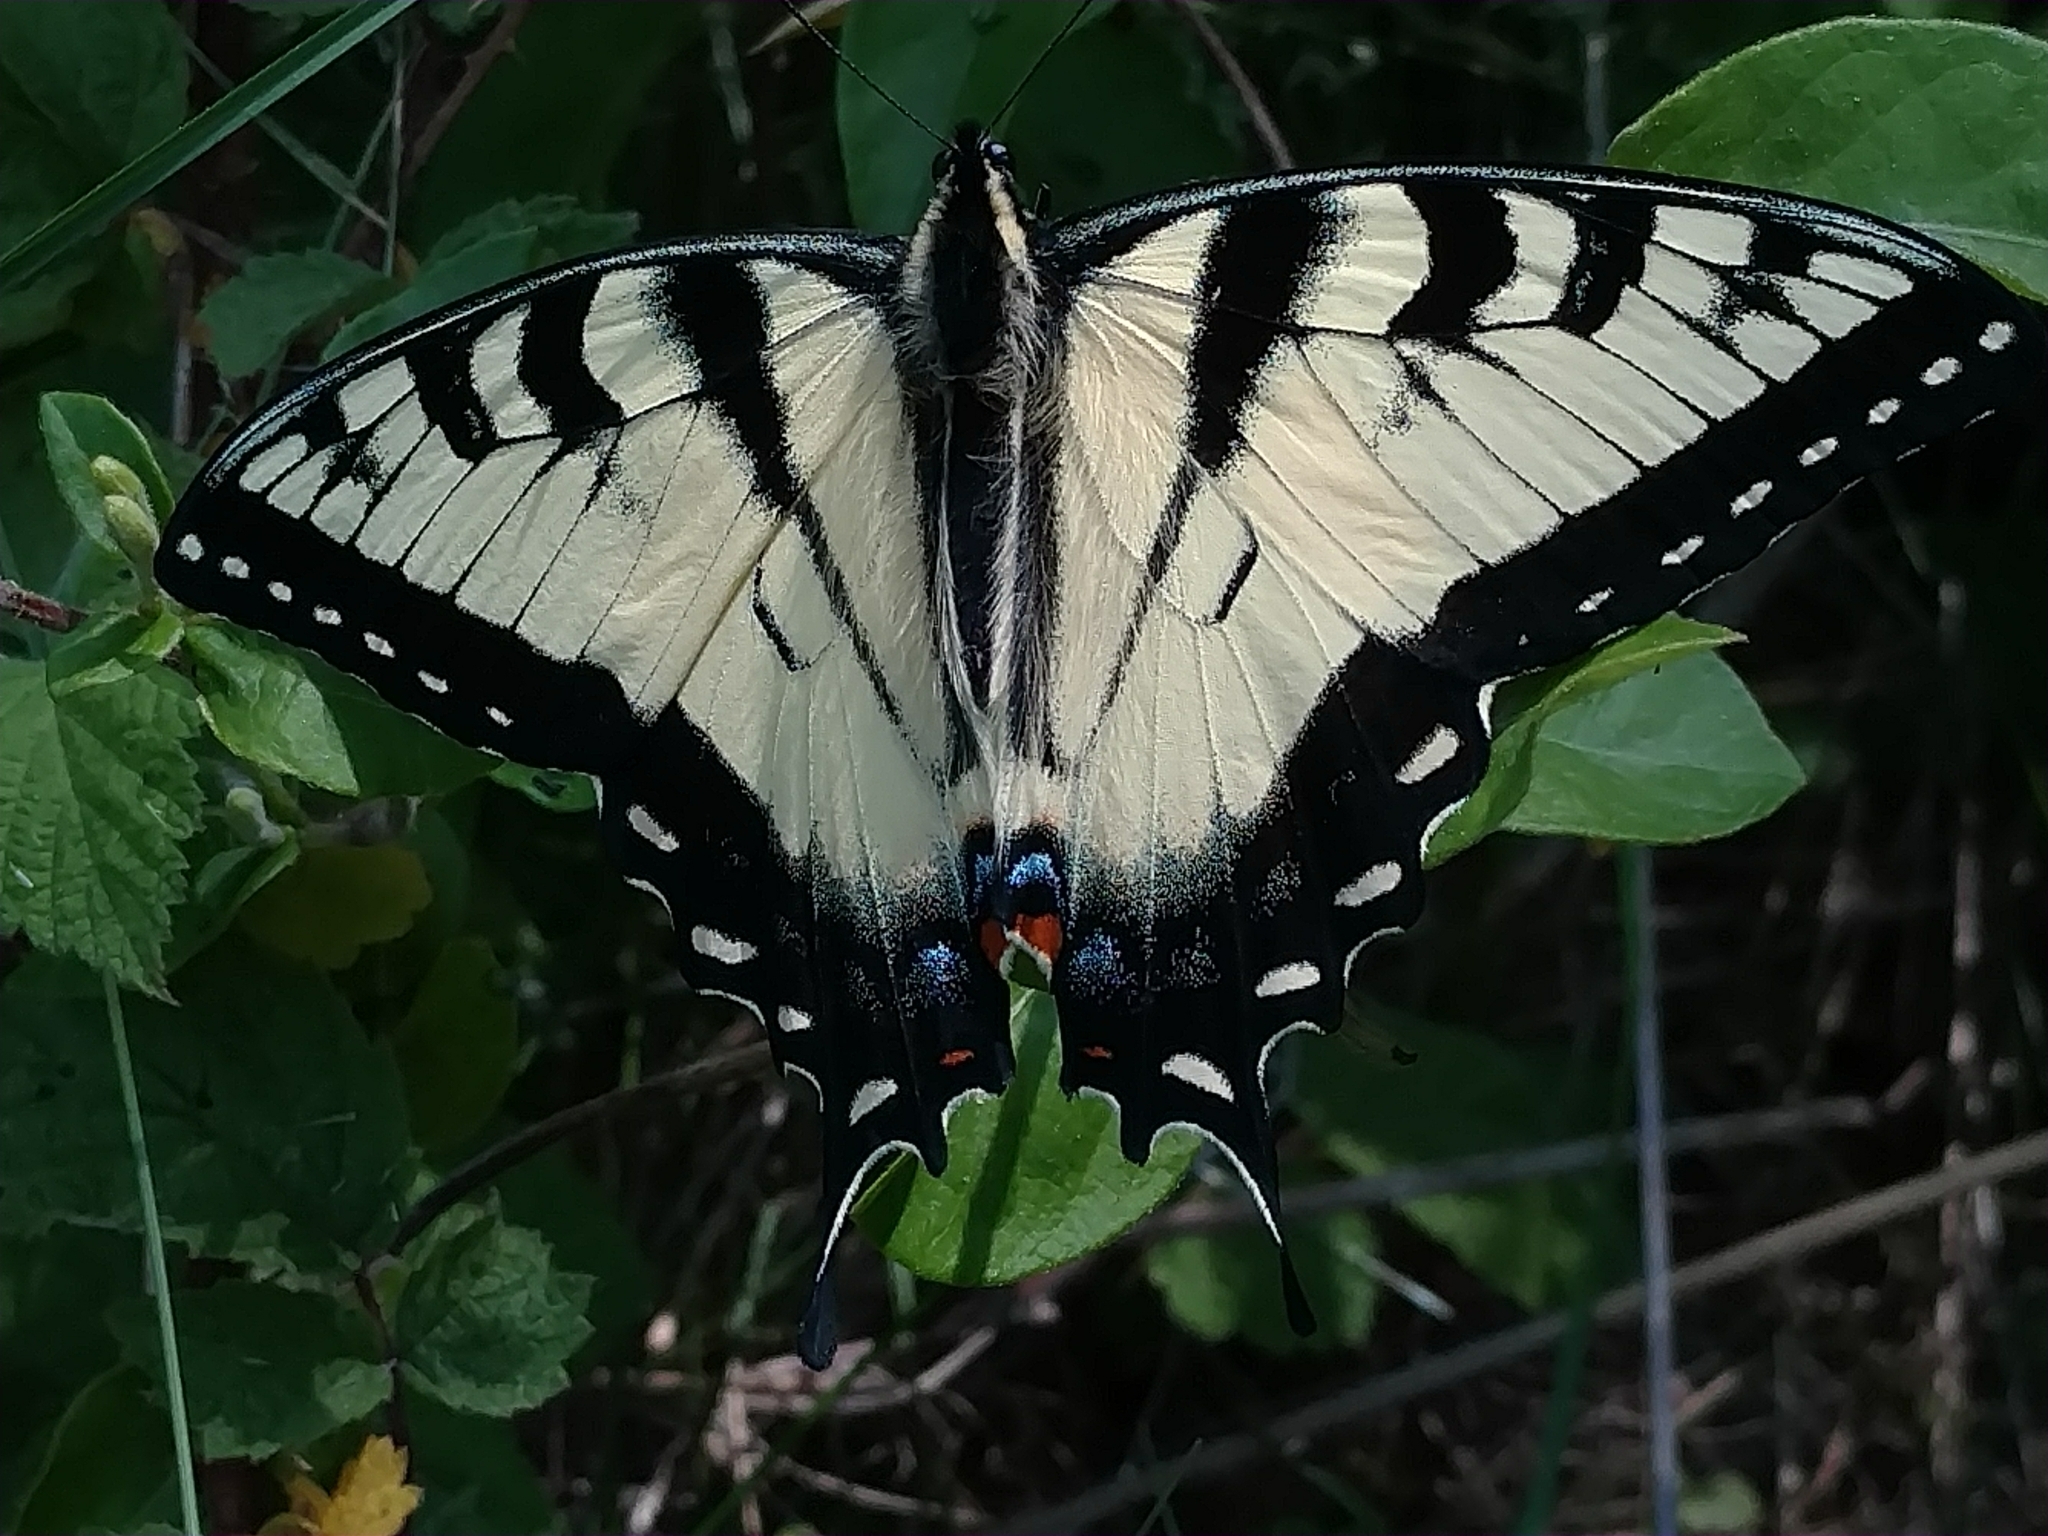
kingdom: Animalia
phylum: Arthropoda
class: Insecta
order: Lepidoptera
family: Papilionidae
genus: Papilio
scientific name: Papilio glaucus
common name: Tiger swallowtail
